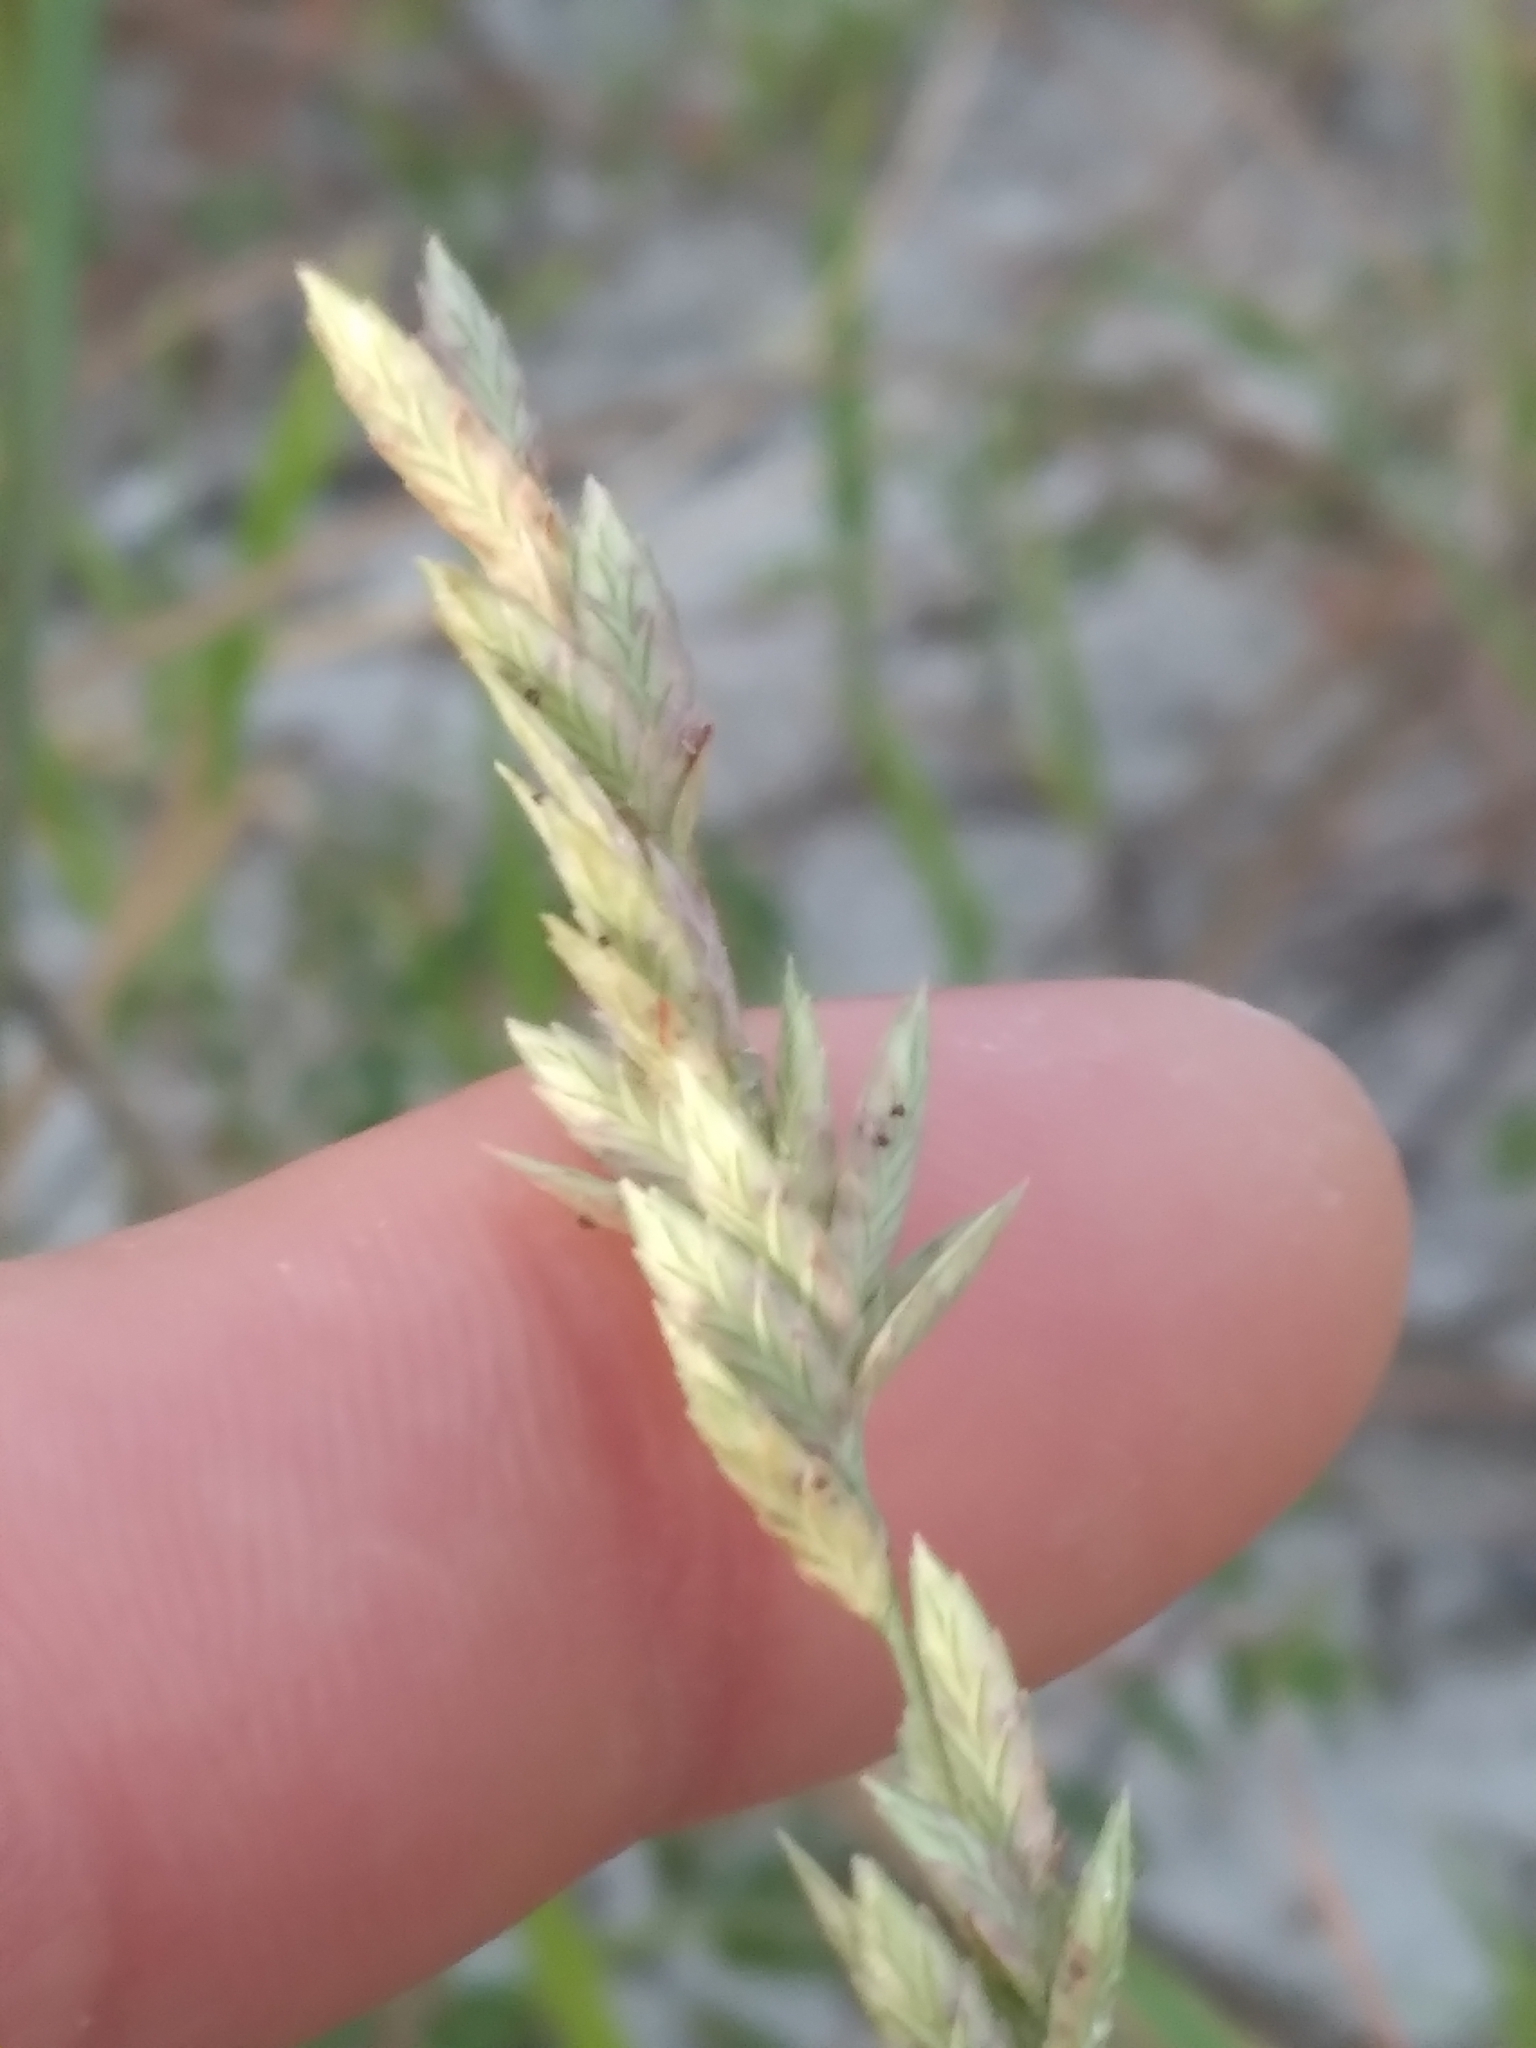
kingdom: Plantae
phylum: Tracheophyta
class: Liliopsida
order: Poales
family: Poaceae
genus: Eragrostis
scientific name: Eragrostis secundiflora
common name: Red love grass
